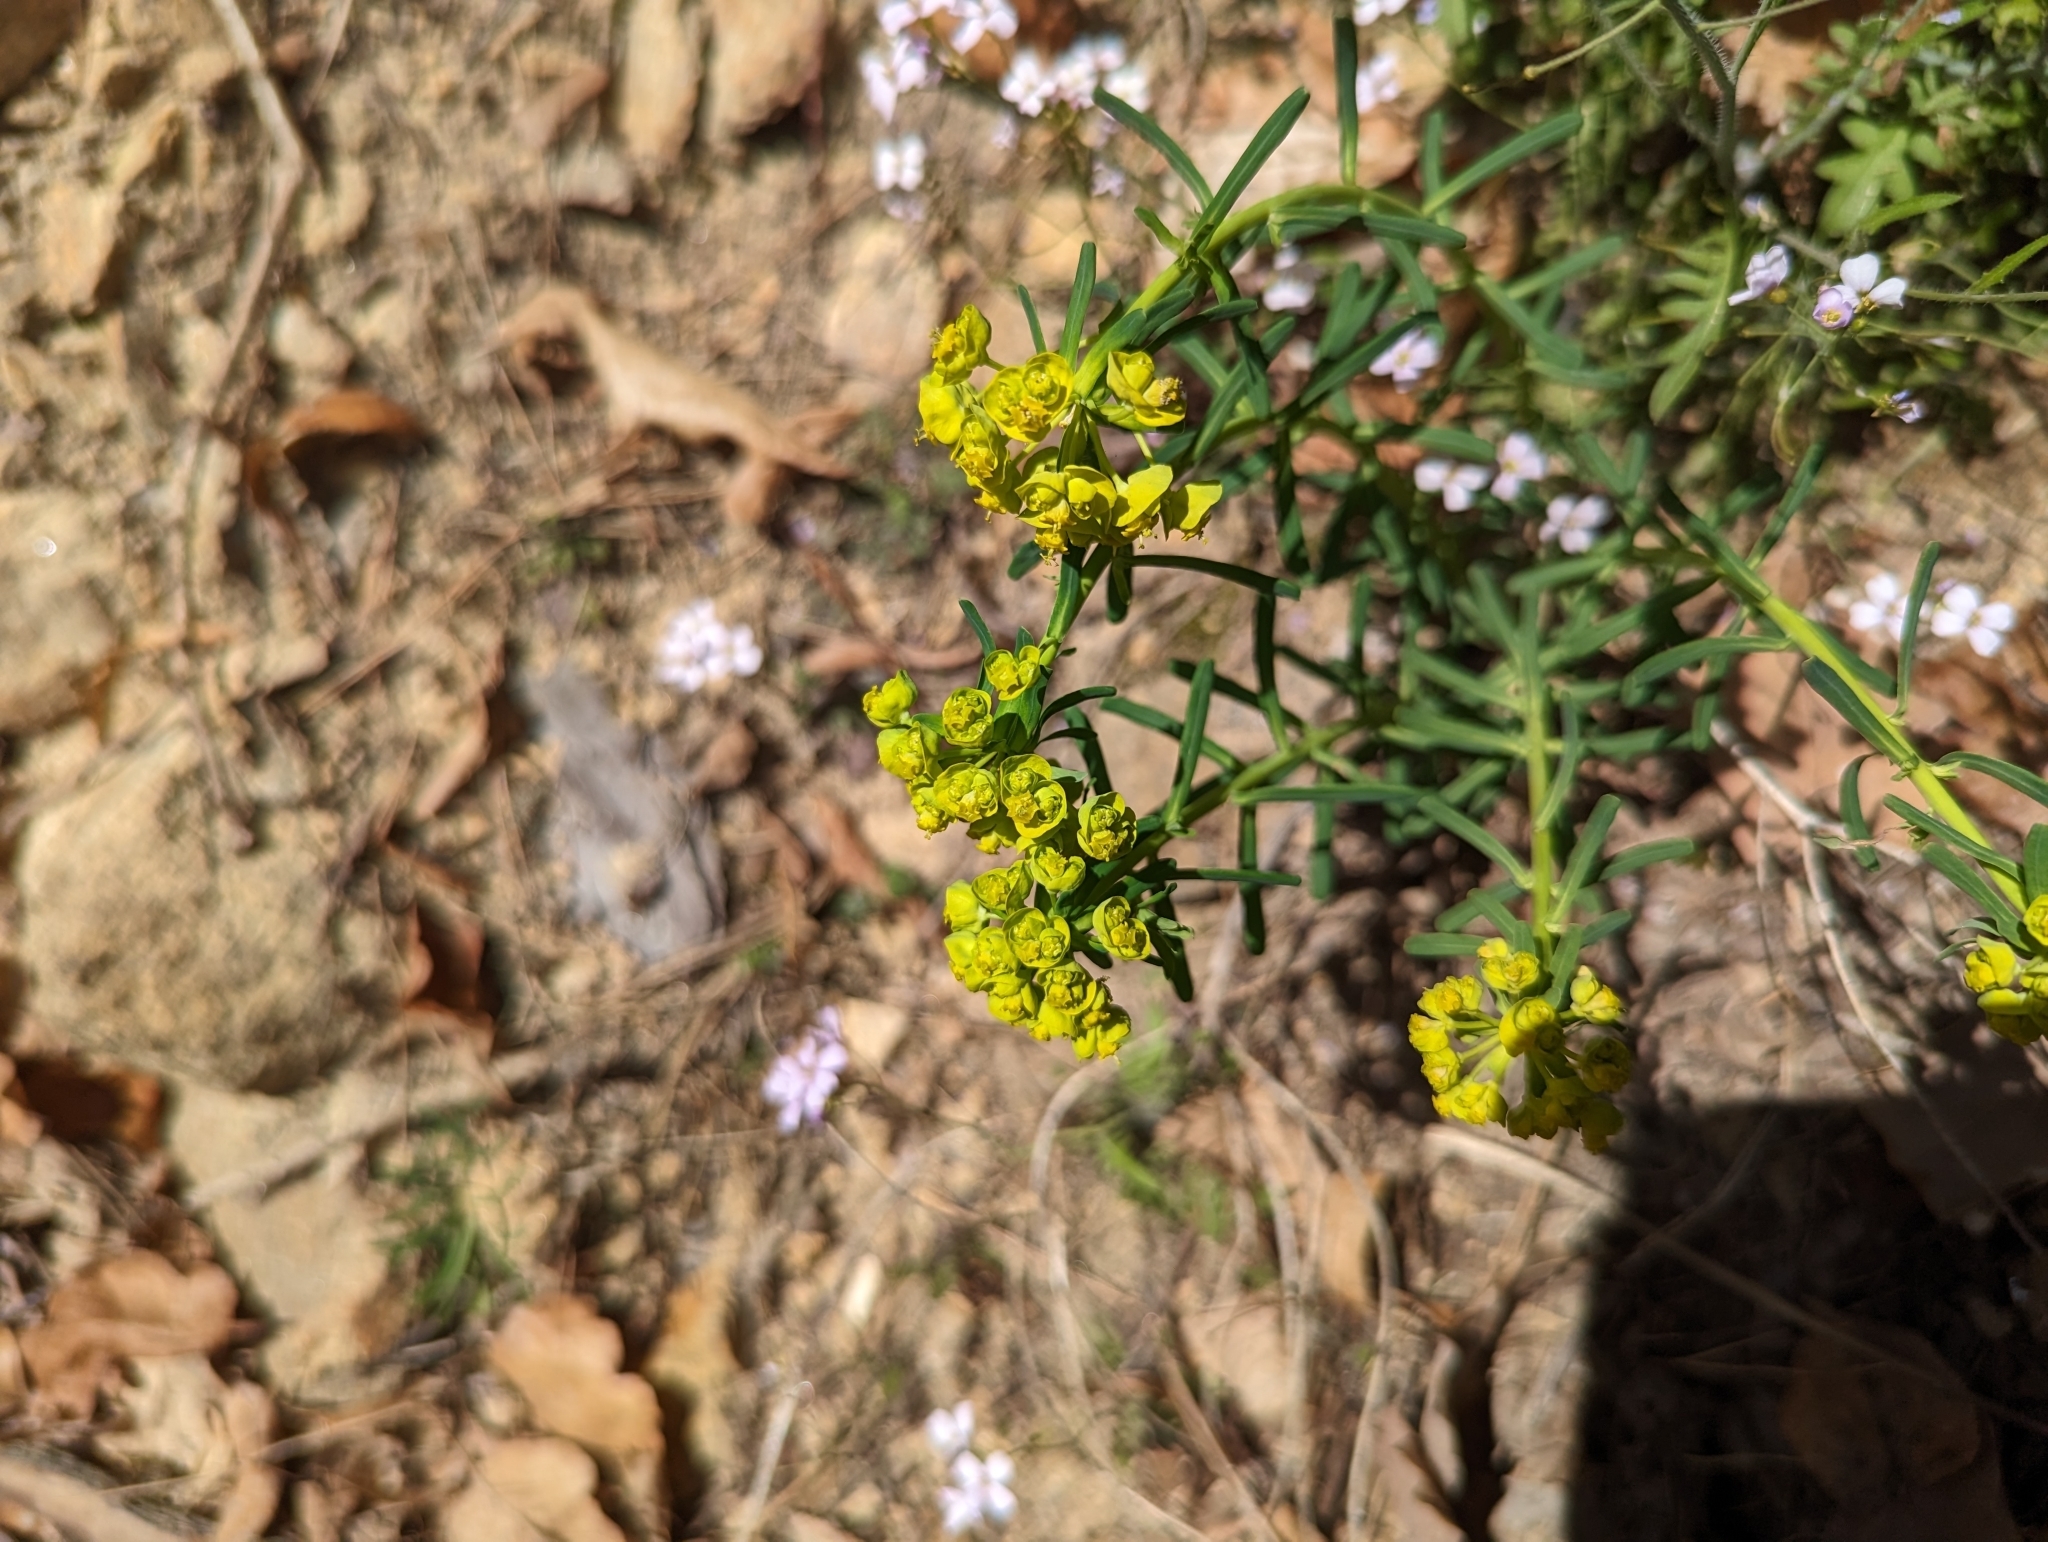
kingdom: Plantae
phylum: Tracheophyta
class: Magnoliopsida
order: Malpighiales
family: Euphorbiaceae
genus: Euphorbia
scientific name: Euphorbia cyparissias
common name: Cypress spurge
